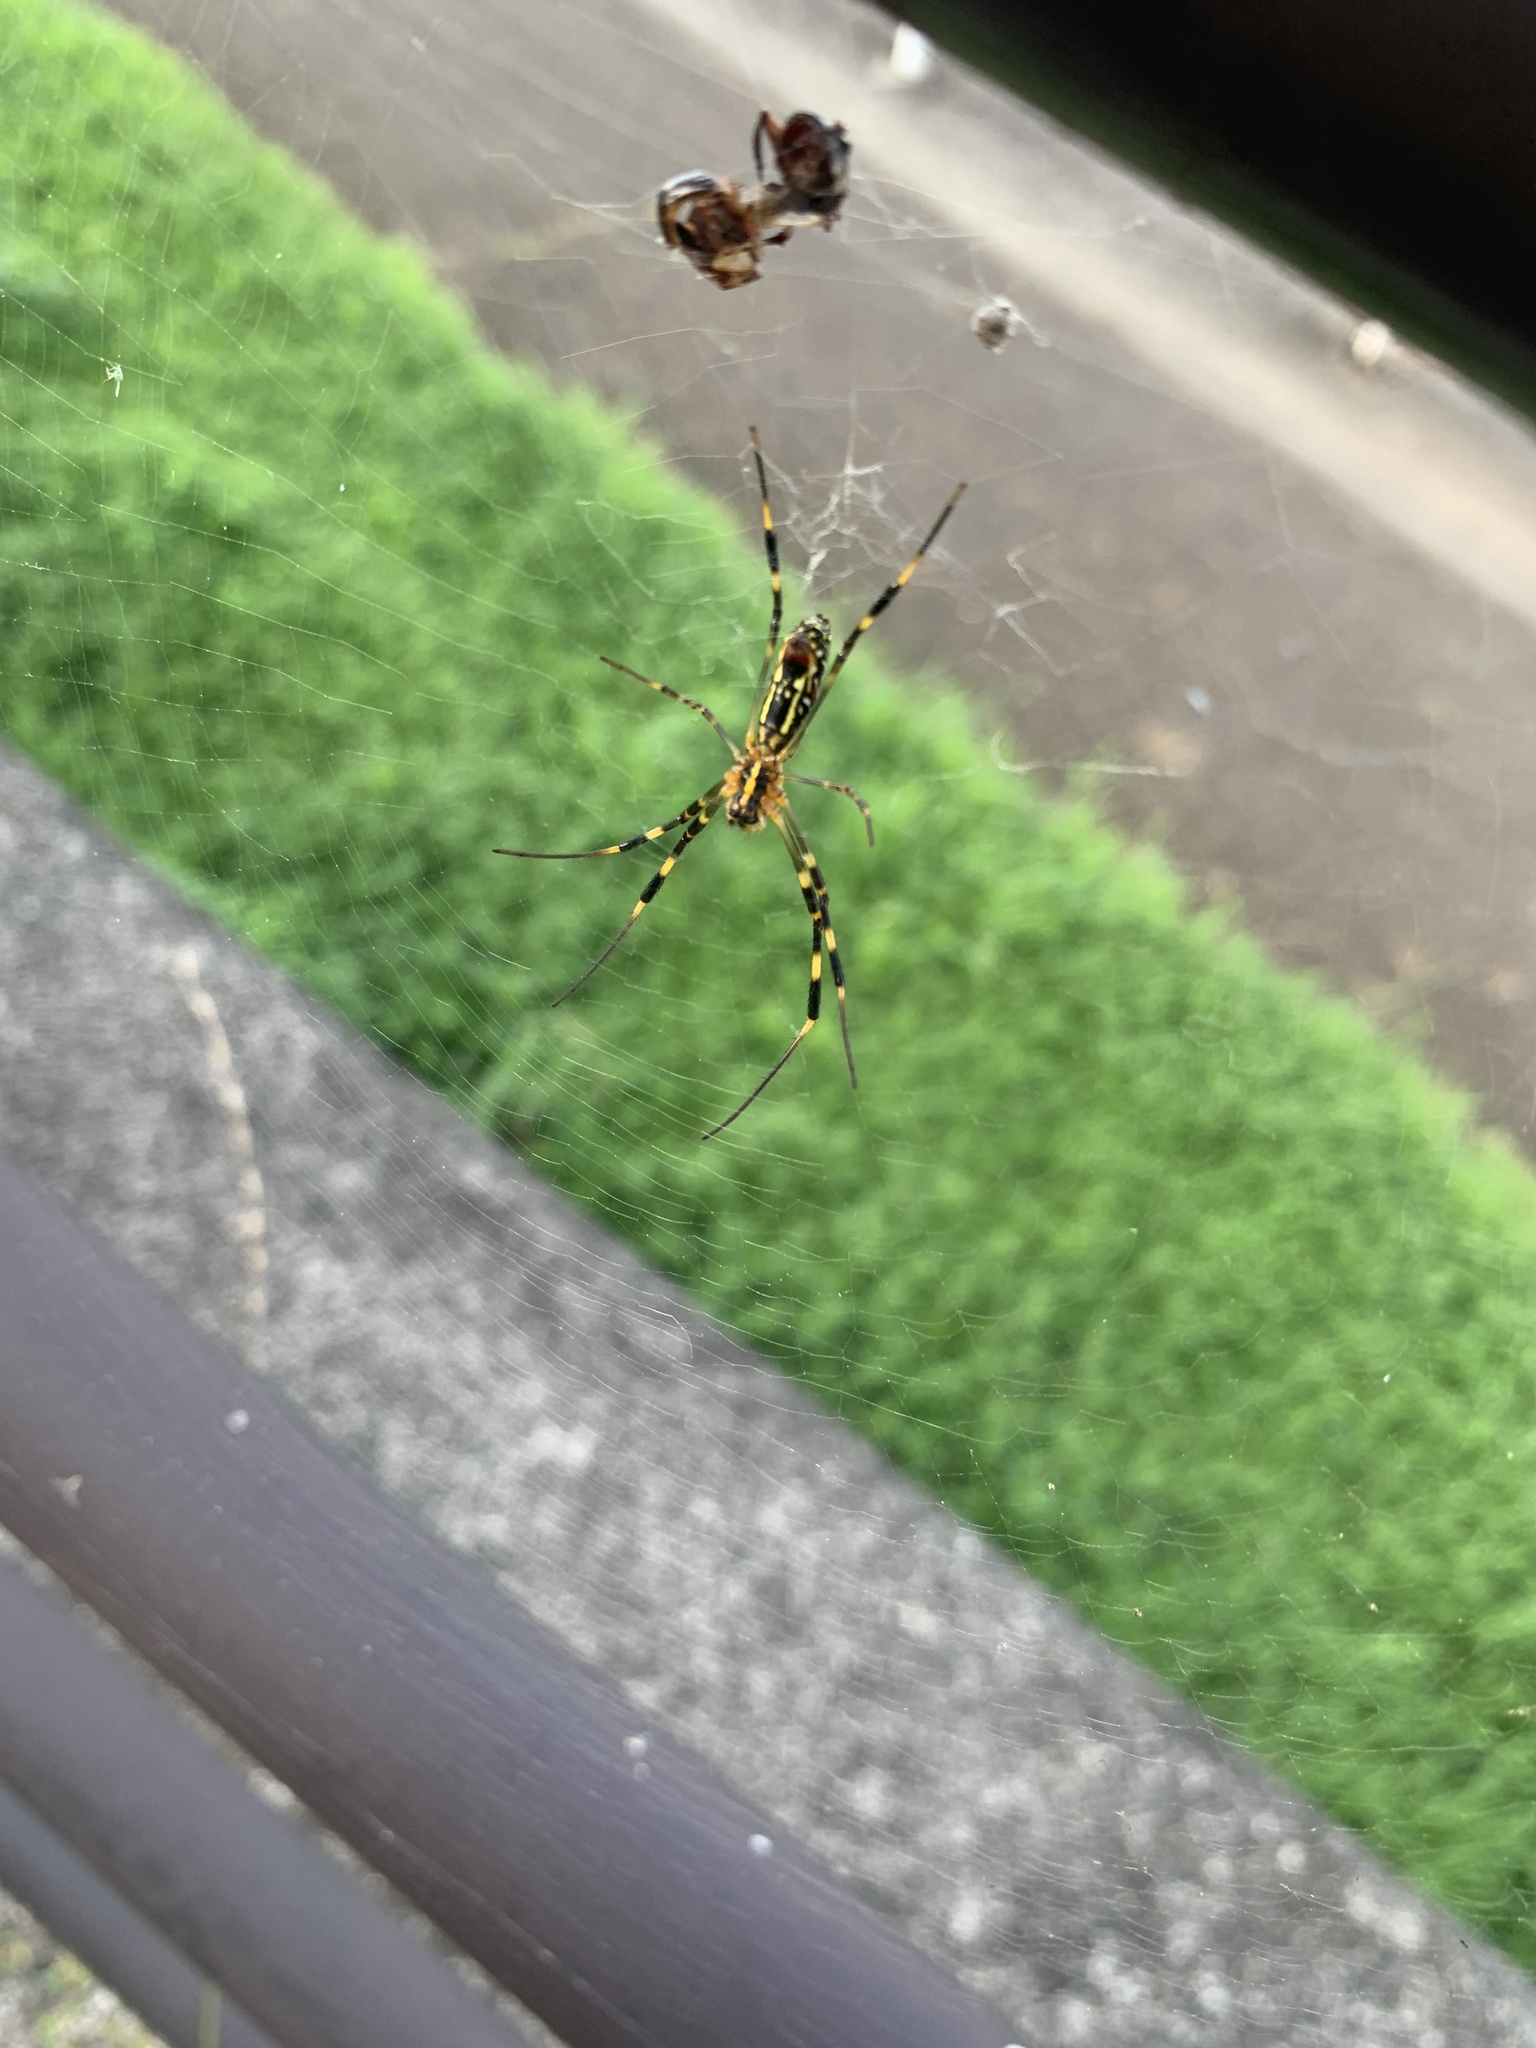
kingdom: Animalia
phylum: Arthropoda
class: Arachnida
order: Araneae
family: Araneidae
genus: Trichonephila
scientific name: Trichonephila clavata
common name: Jorō spider
